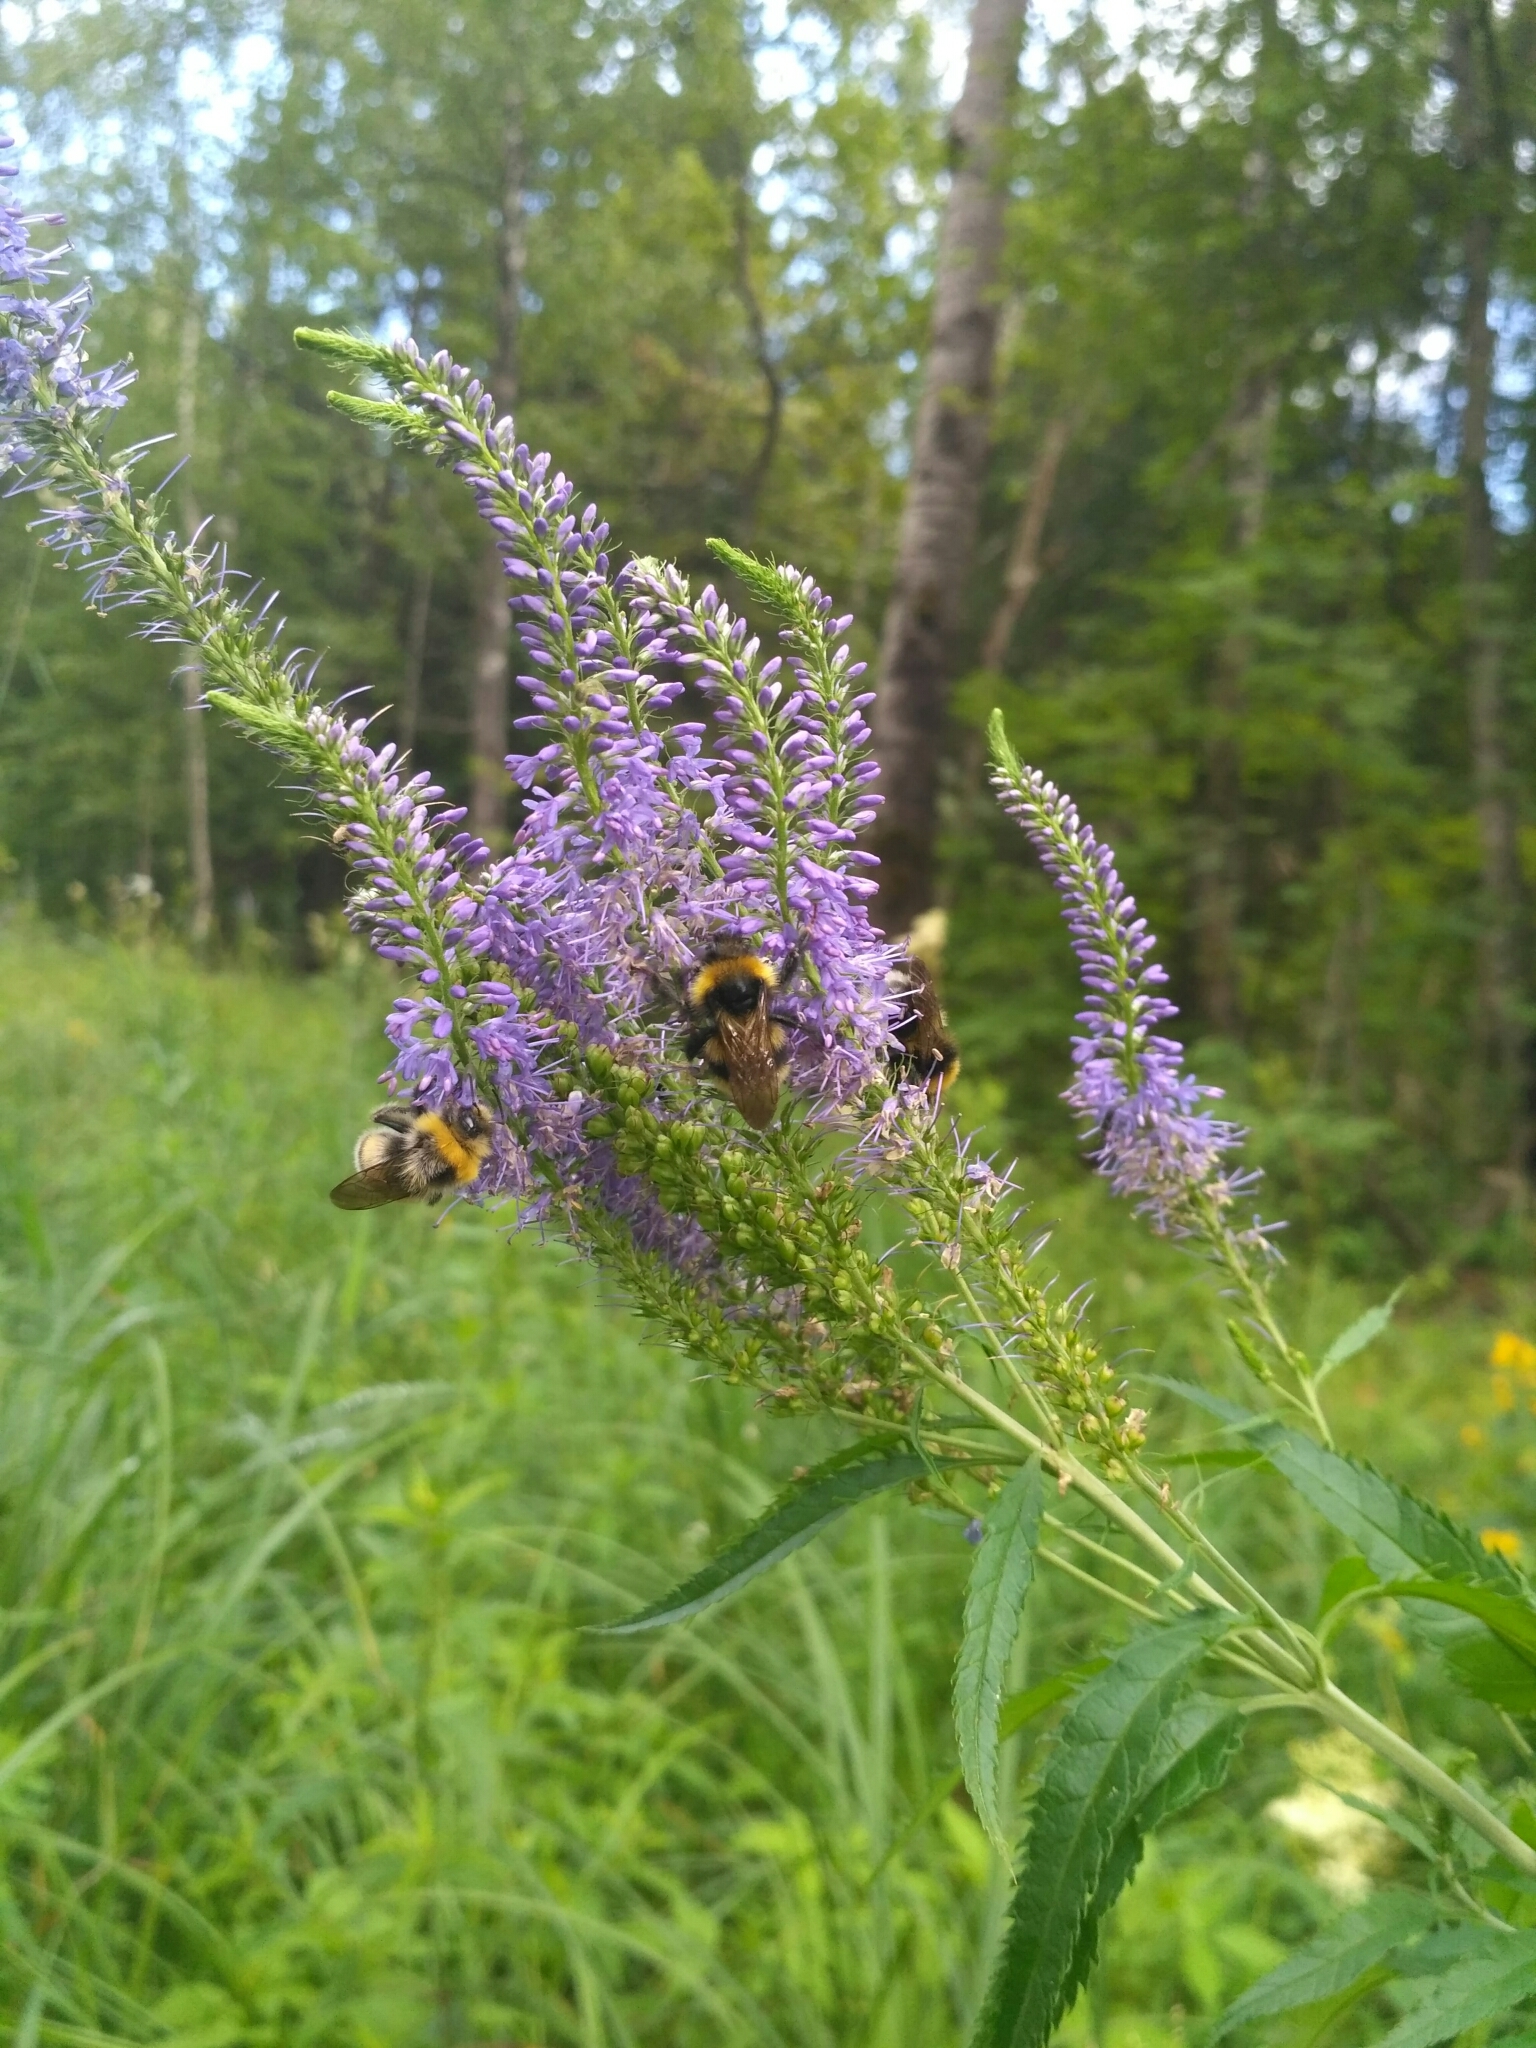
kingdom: Plantae
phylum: Tracheophyta
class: Magnoliopsida
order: Lamiales
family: Plantaginaceae
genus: Veronica
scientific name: Veronica longifolia
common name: Garden speedwell
